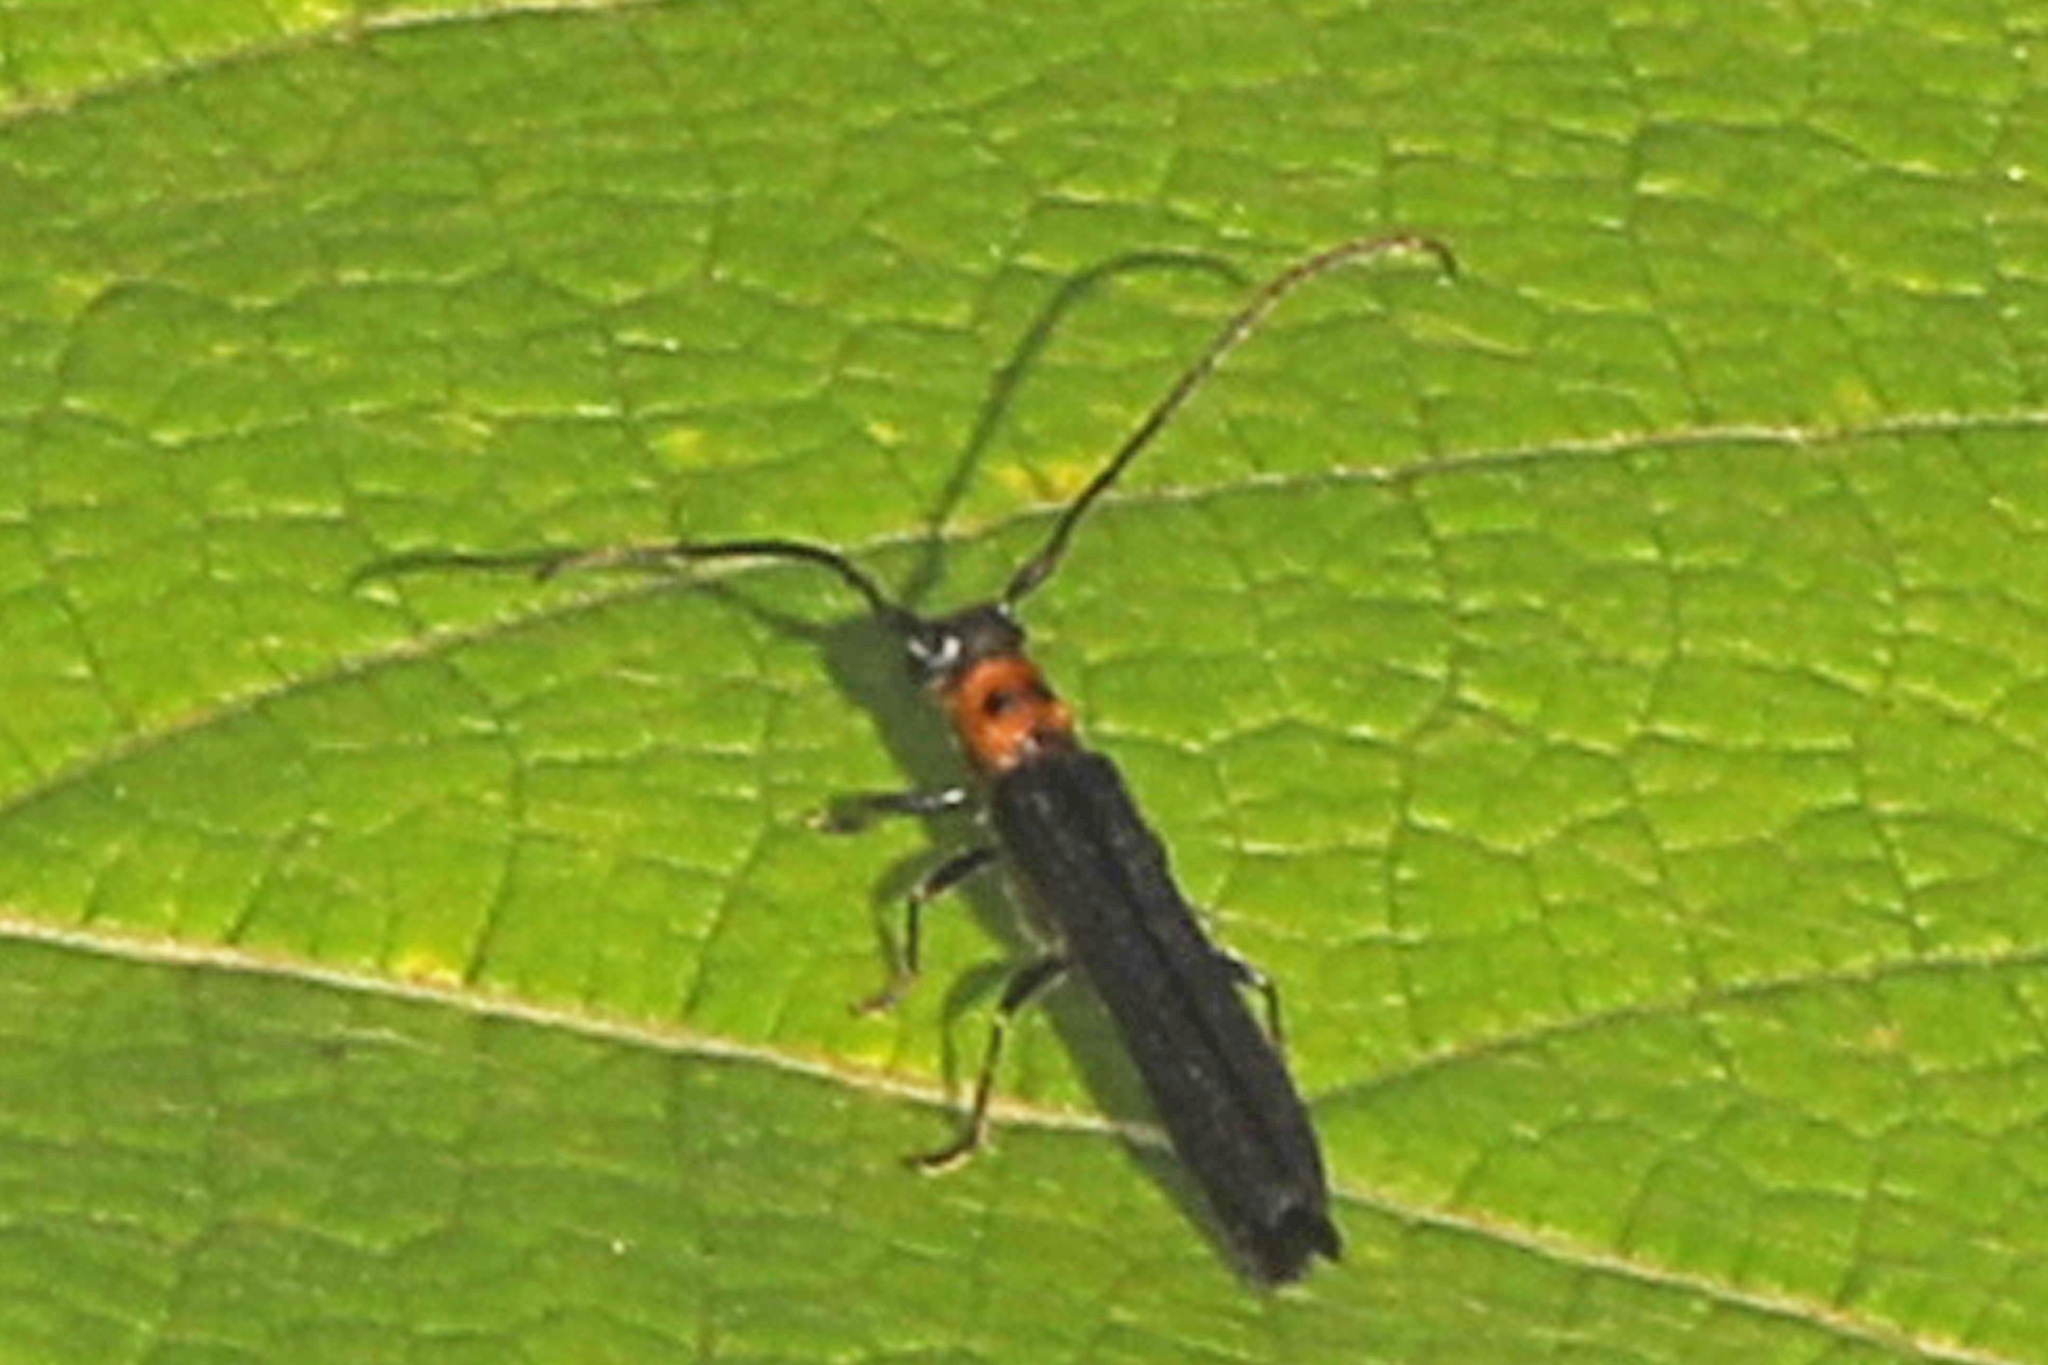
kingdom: Animalia
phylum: Arthropoda
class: Insecta
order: Coleoptera
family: Cerambycidae
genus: Oberea
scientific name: Oberea perspicillata
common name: Raspberry cane borer
